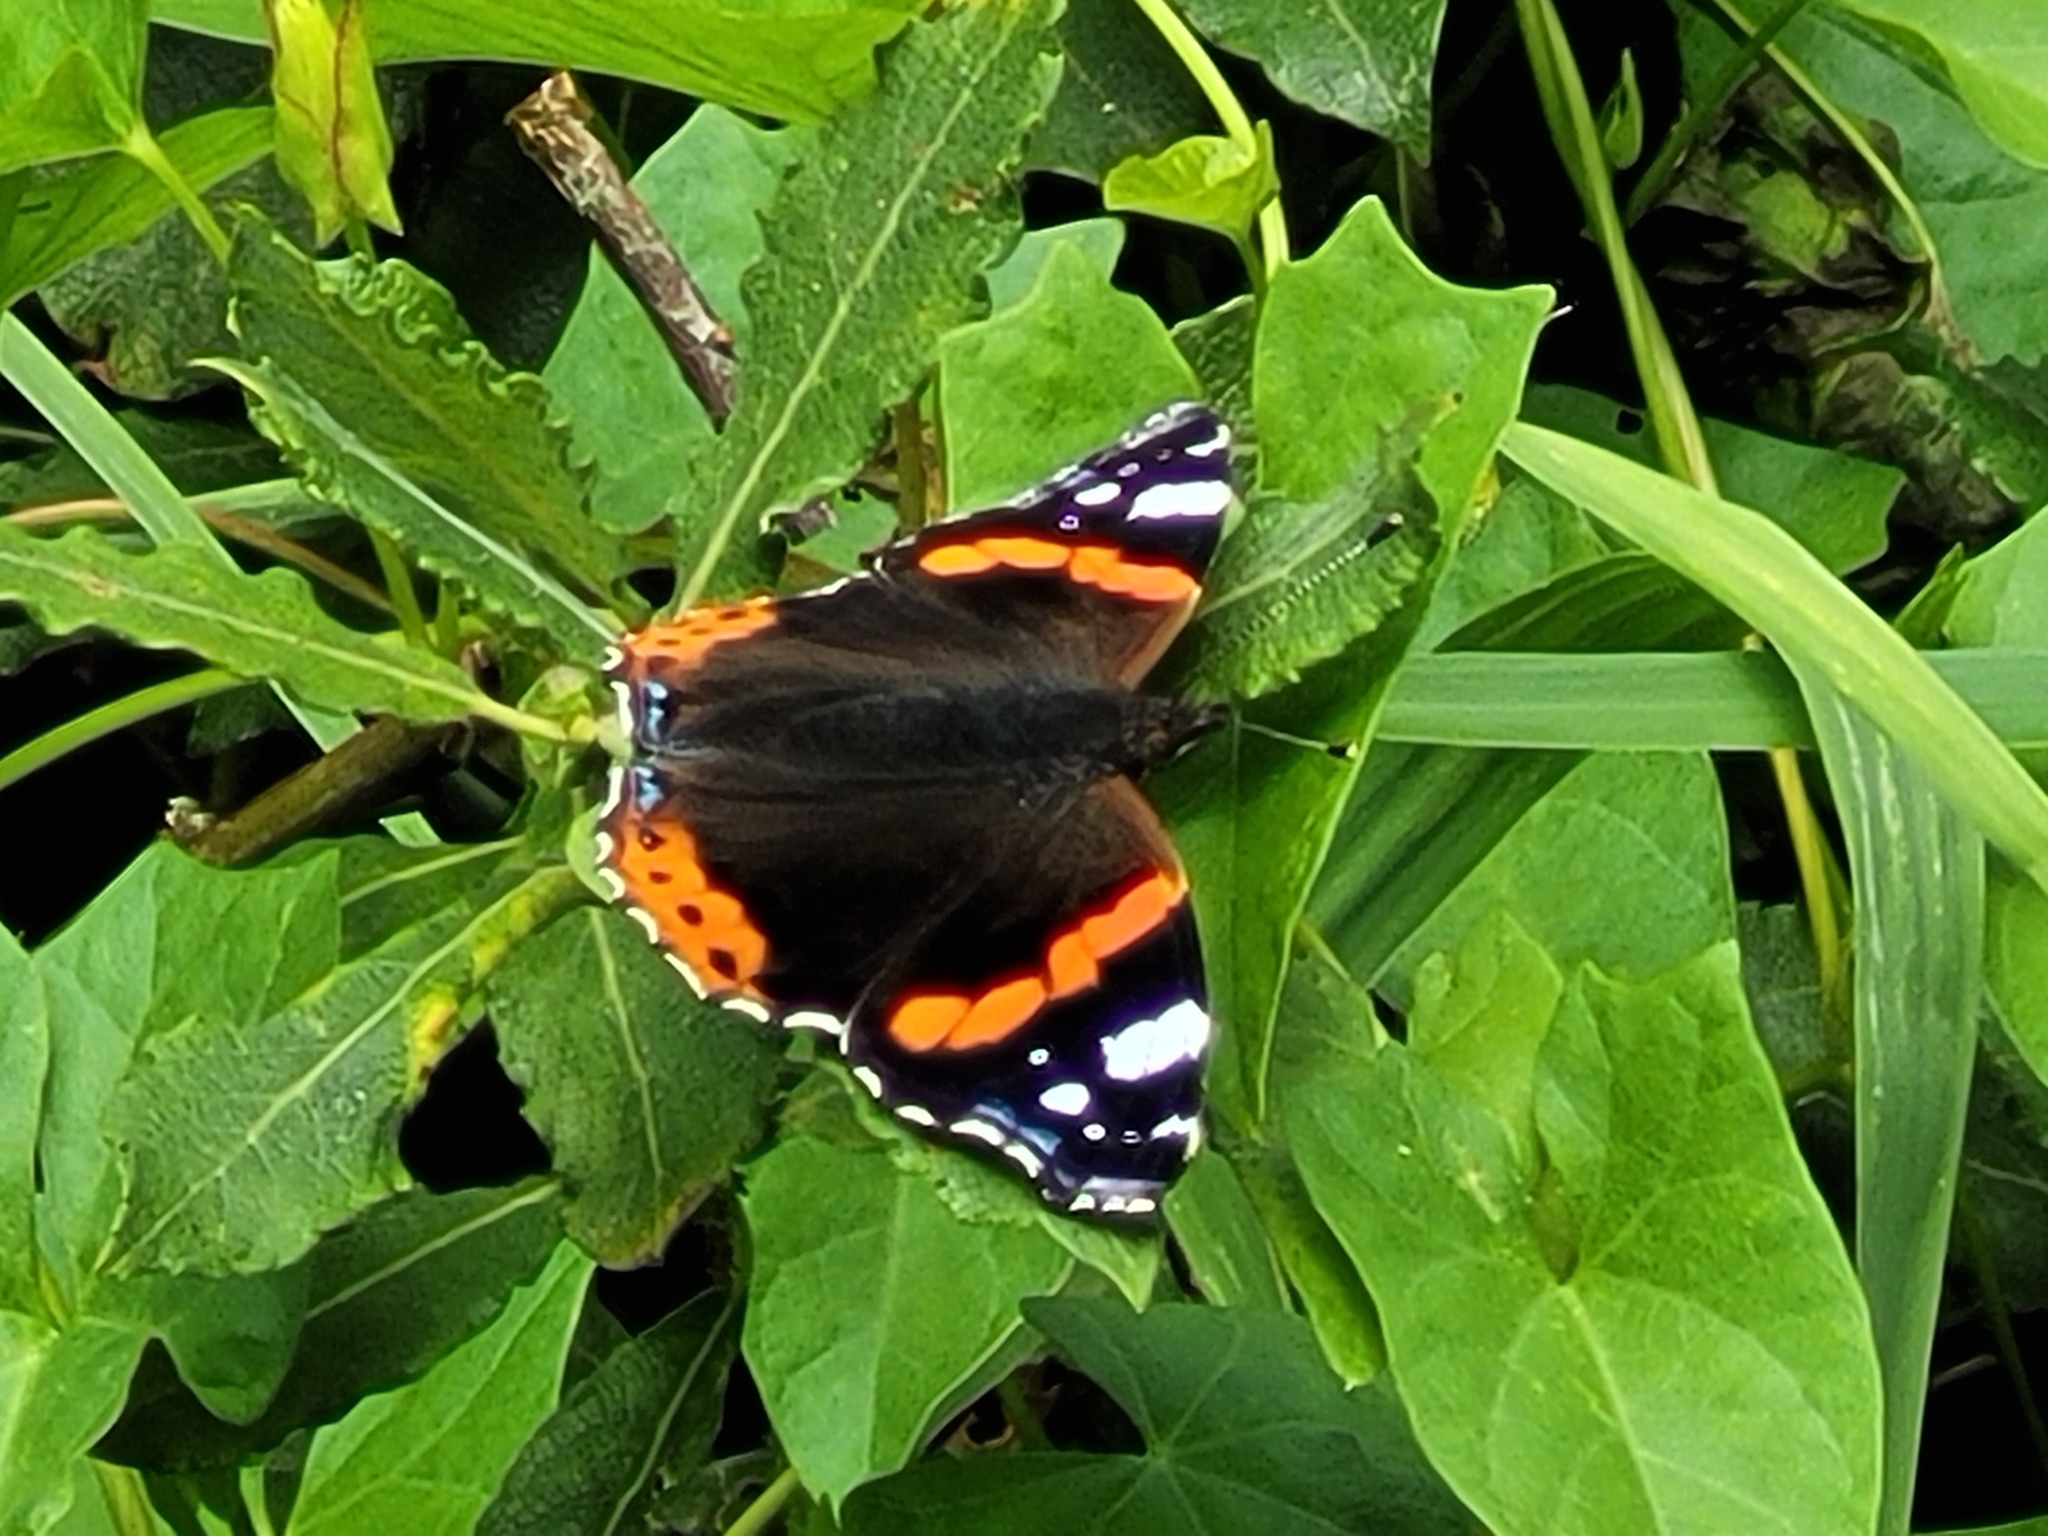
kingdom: Animalia
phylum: Arthropoda
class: Insecta
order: Lepidoptera
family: Nymphalidae
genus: Vanessa
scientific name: Vanessa atalanta
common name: Red admiral
